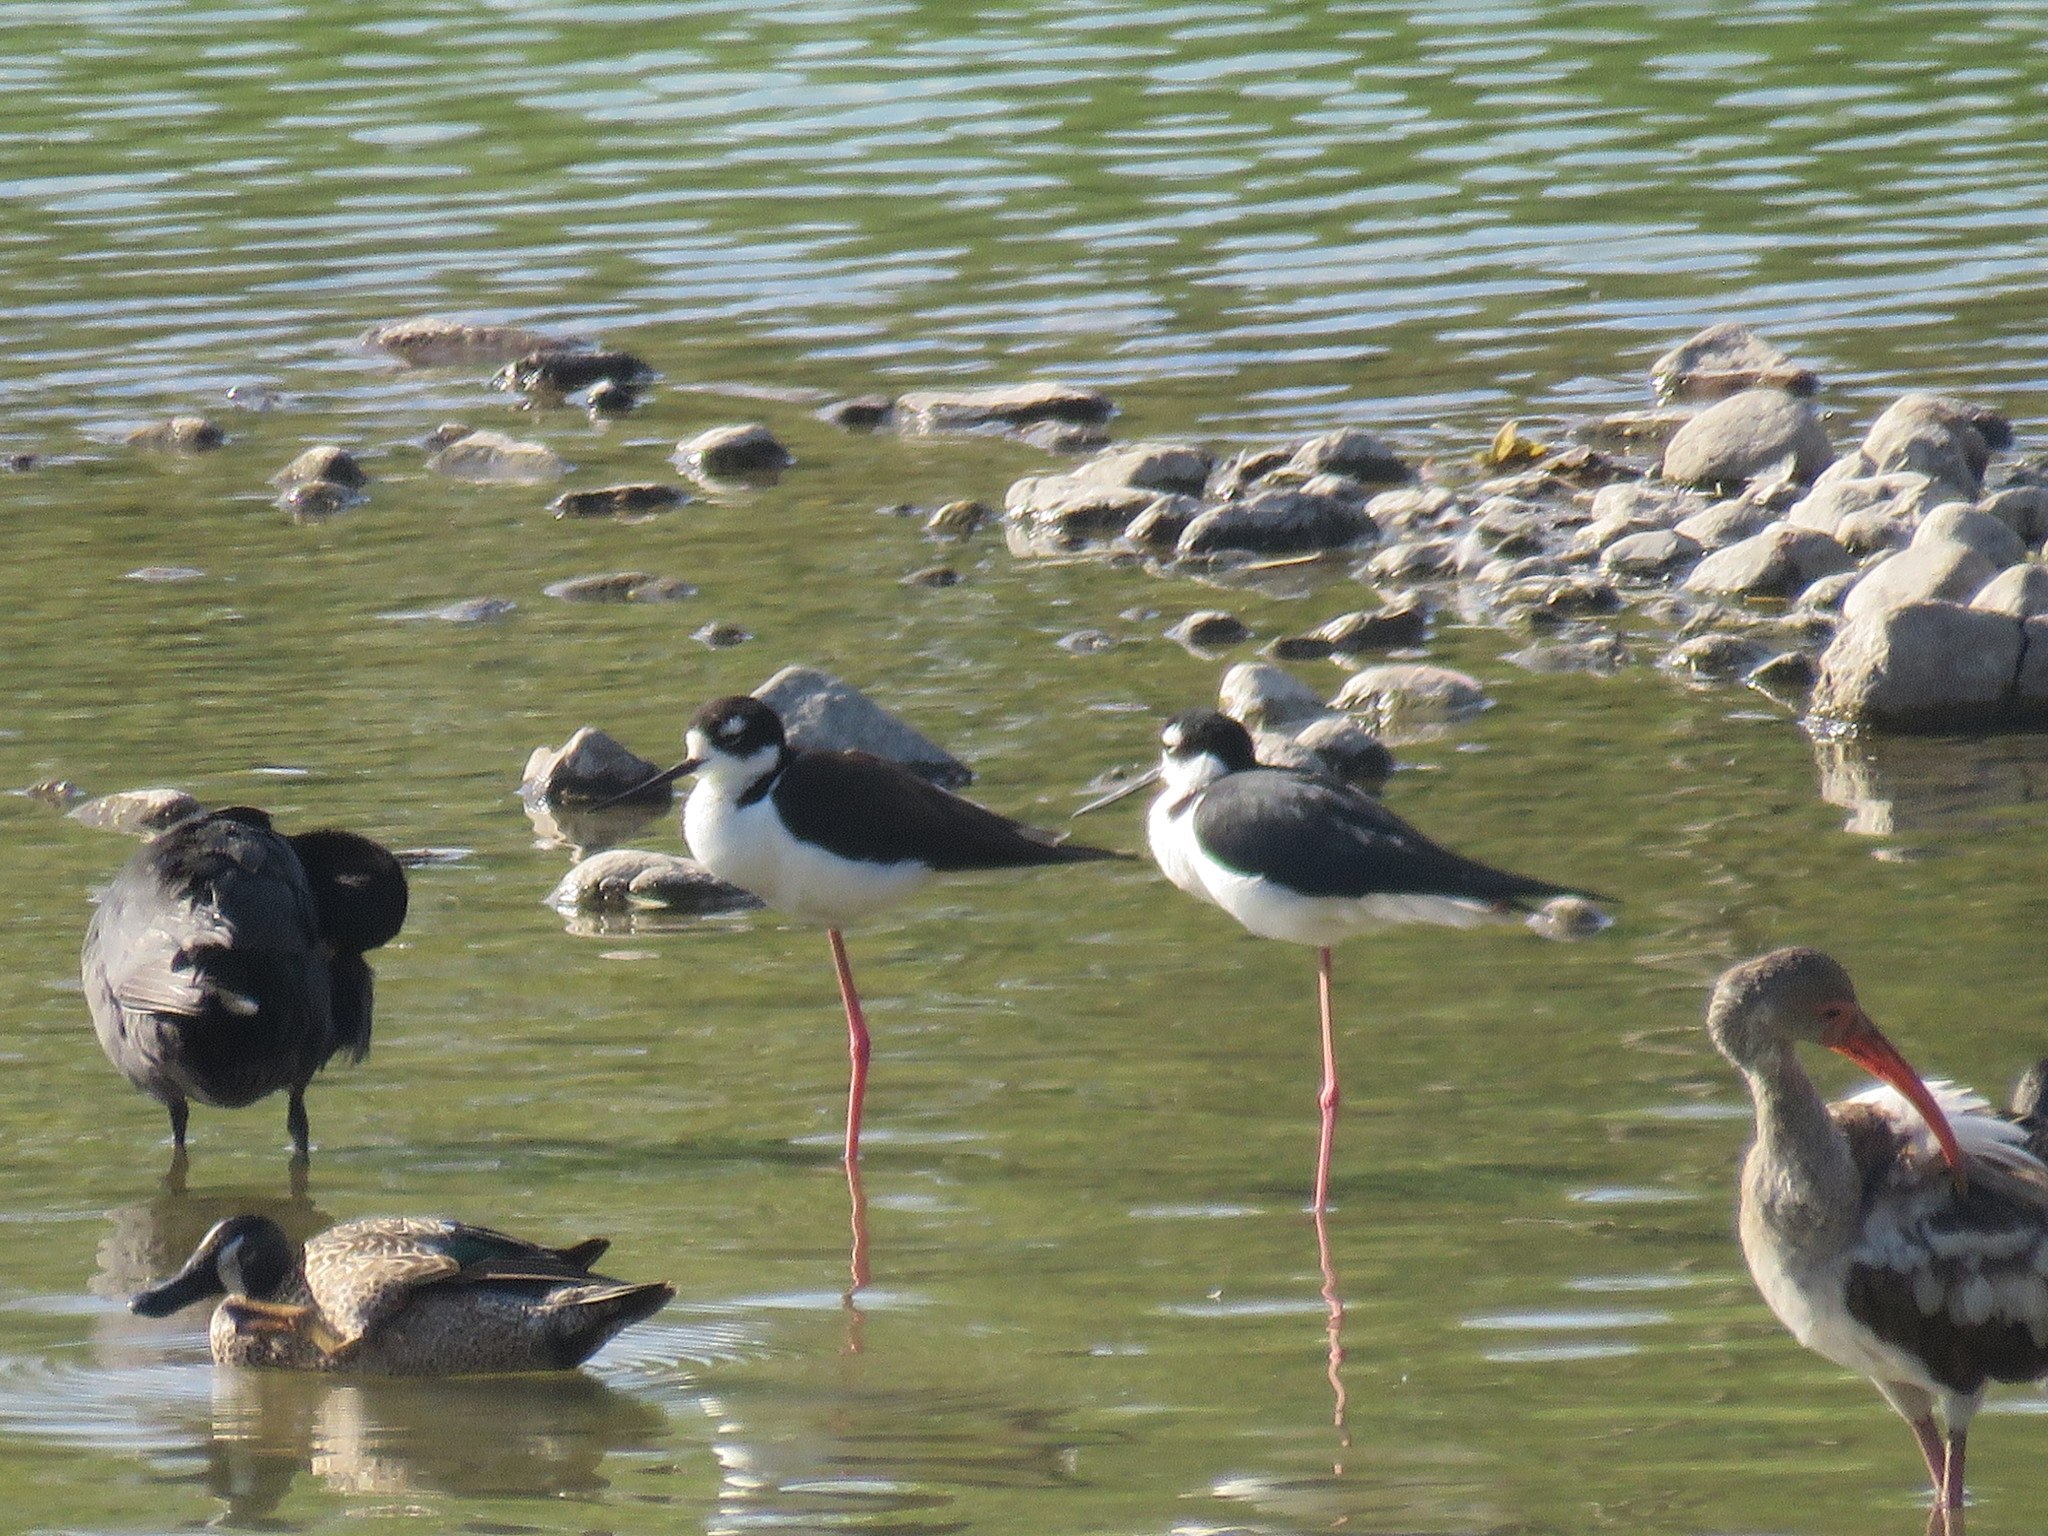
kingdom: Animalia
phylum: Chordata
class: Aves
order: Charadriiformes
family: Recurvirostridae
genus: Himantopus
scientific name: Himantopus mexicanus
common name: Black-necked stilt
